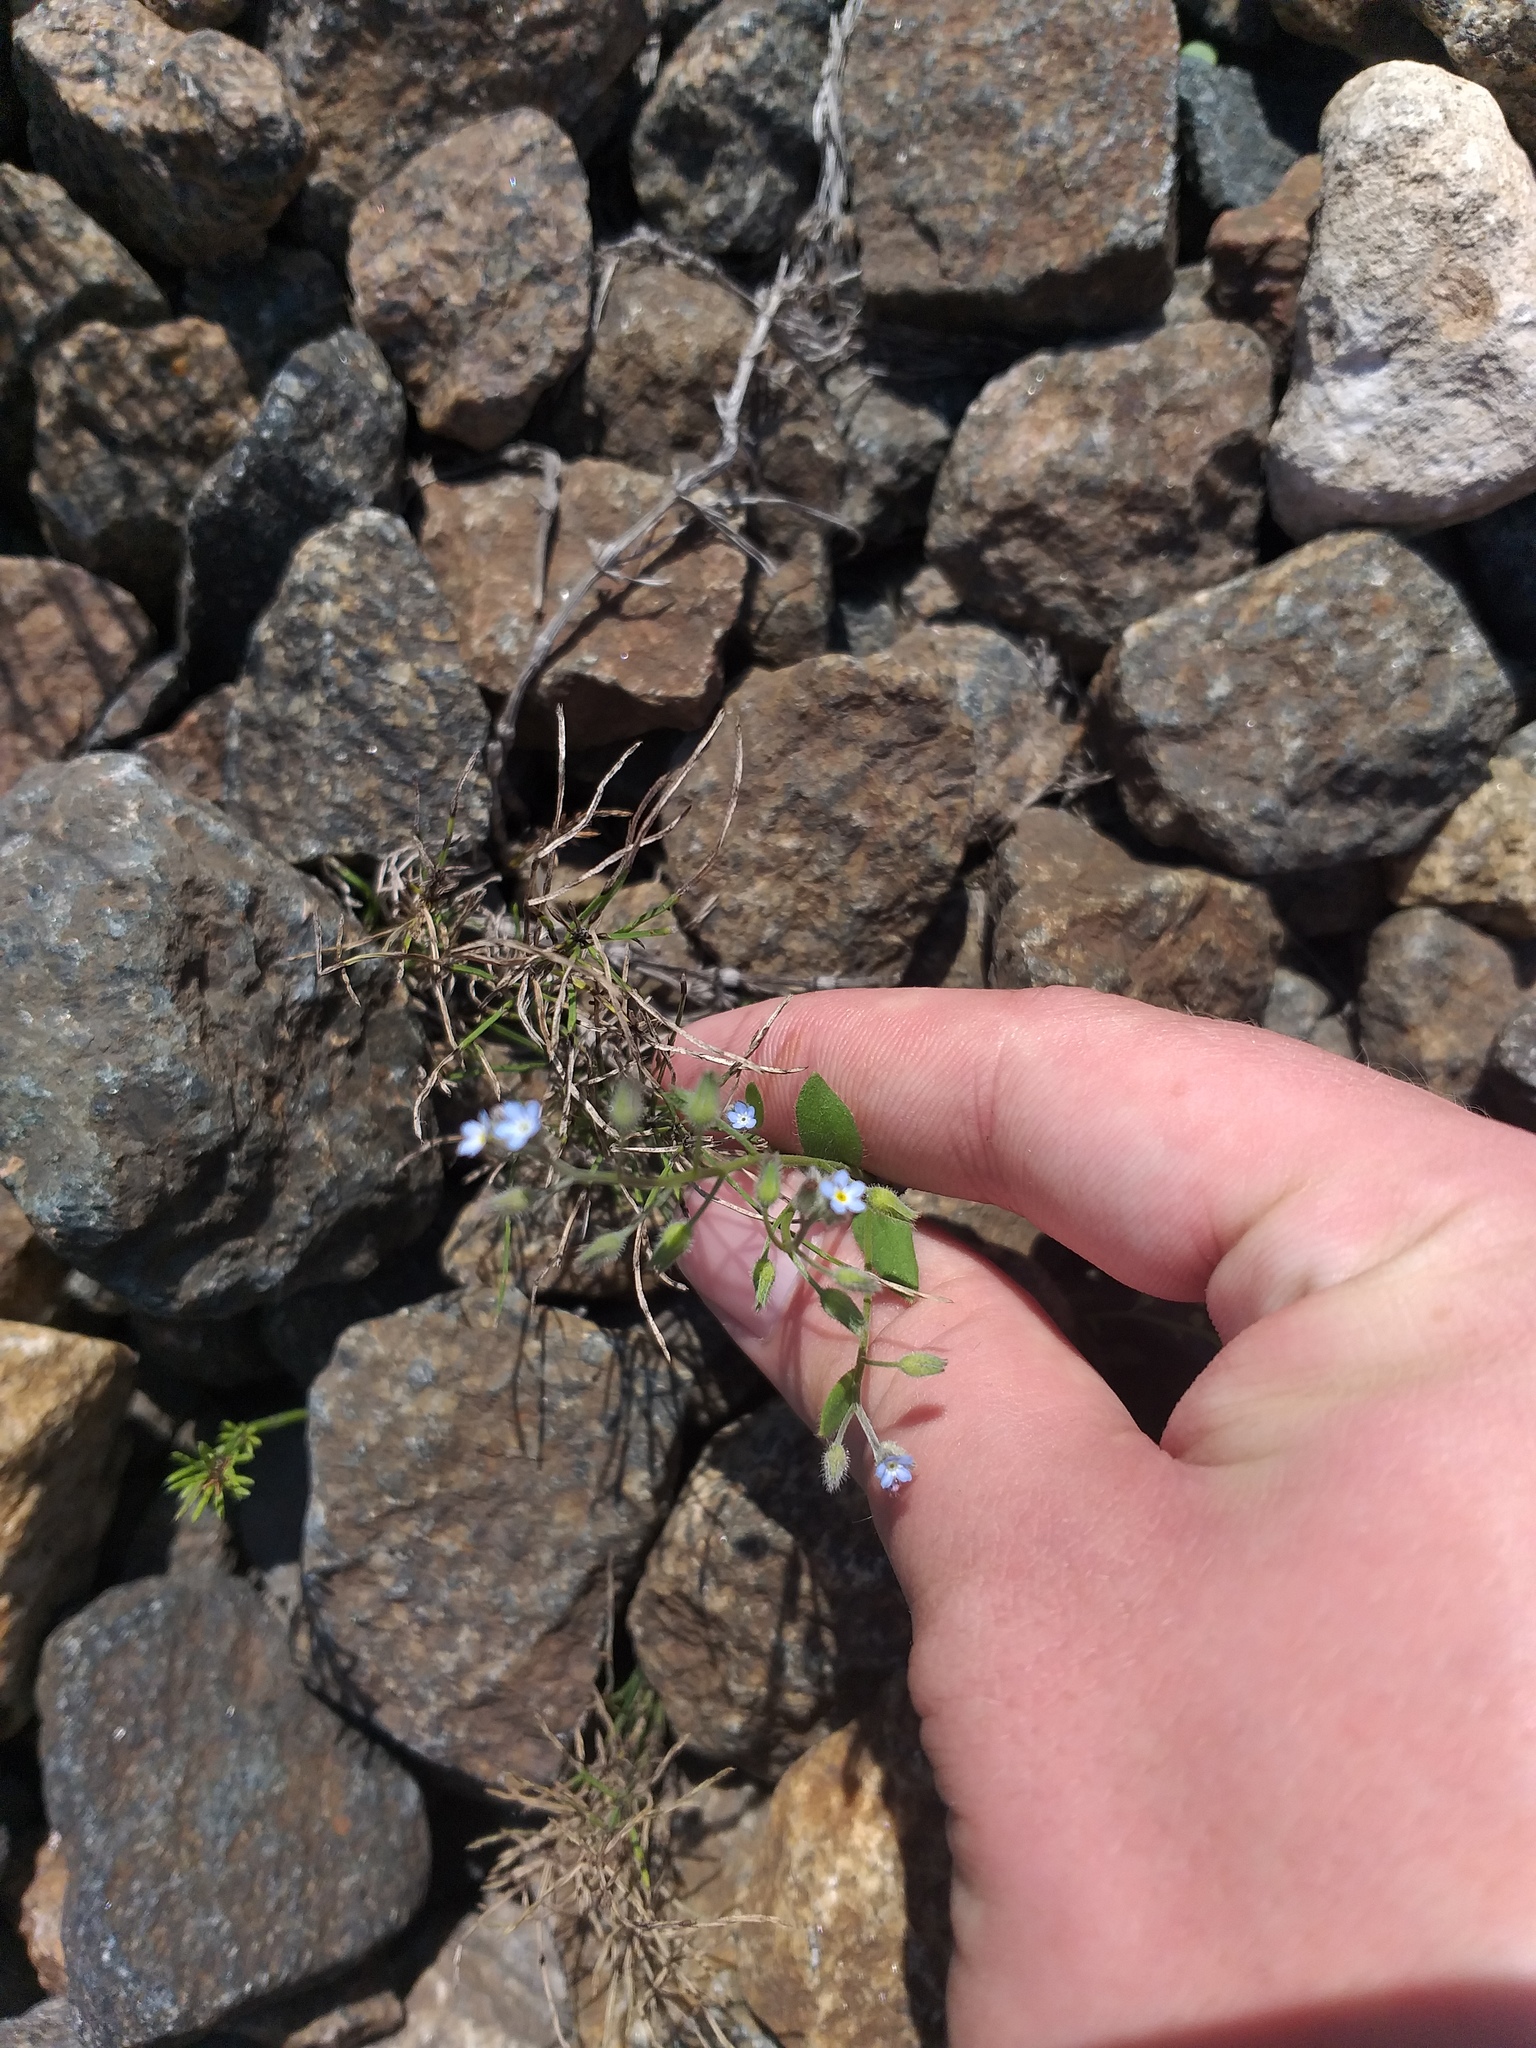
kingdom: Plantae
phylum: Tracheophyta
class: Magnoliopsida
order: Boraginales
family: Boraginaceae
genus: Myosotis
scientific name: Myosotis arvensis
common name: Field forget-me-not
